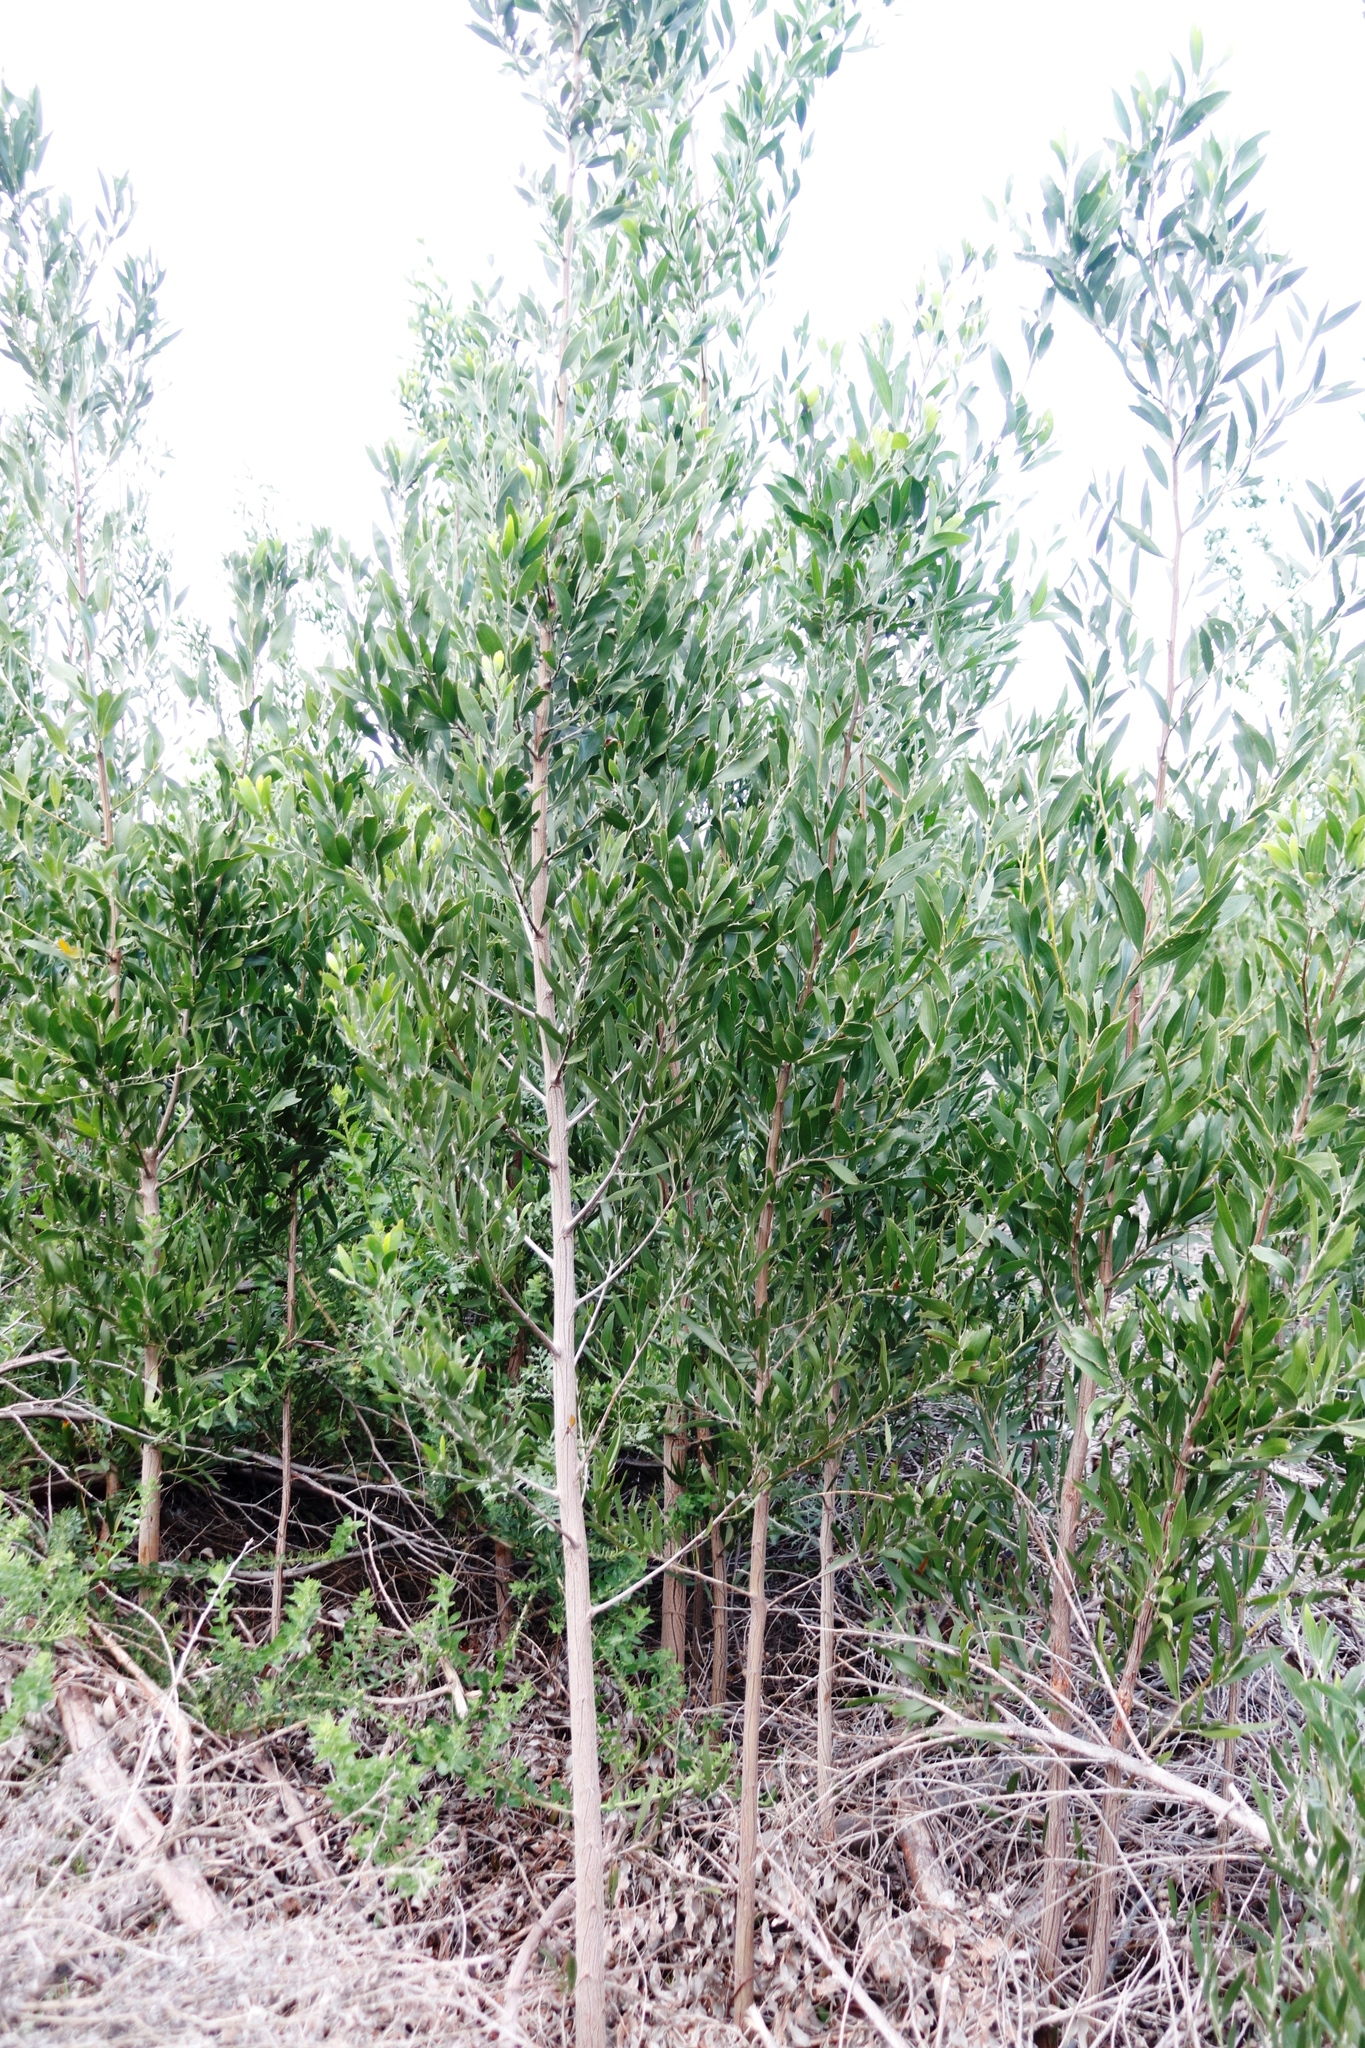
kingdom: Plantae
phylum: Tracheophyta
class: Magnoliopsida
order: Fabales
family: Fabaceae
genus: Acacia
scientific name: Acacia melanoxylon
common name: Blackwood
